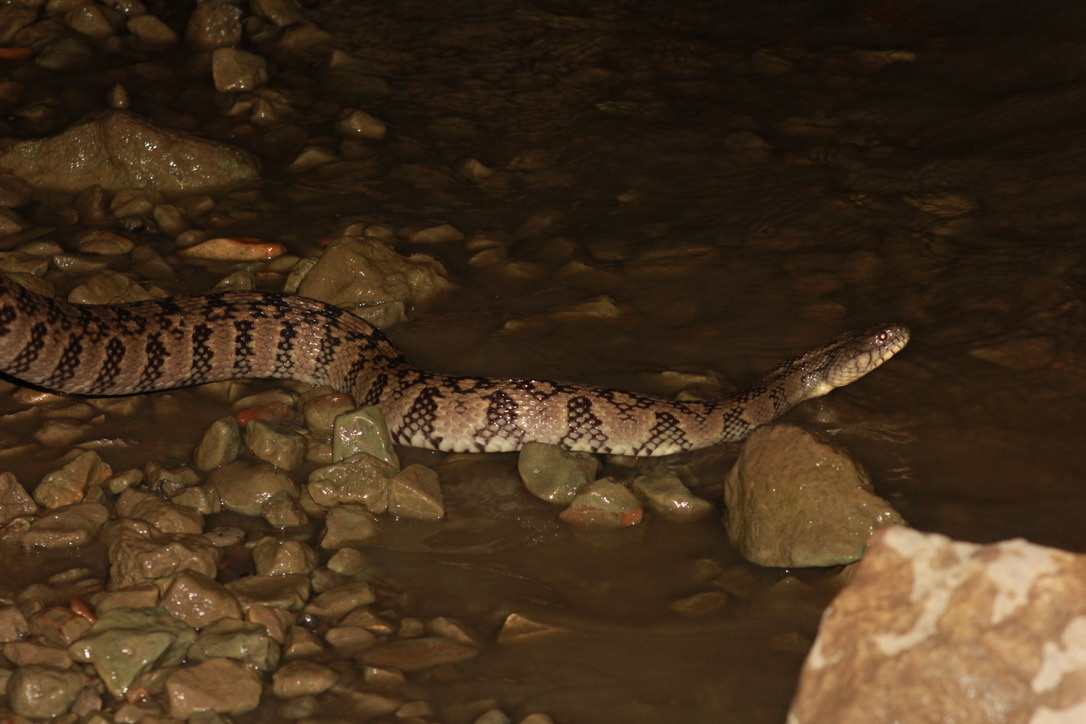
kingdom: Animalia
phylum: Chordata
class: Squamata
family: Colubridae
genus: Nerodia
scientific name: Nerodia rhombifer
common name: Diamondback water snake
